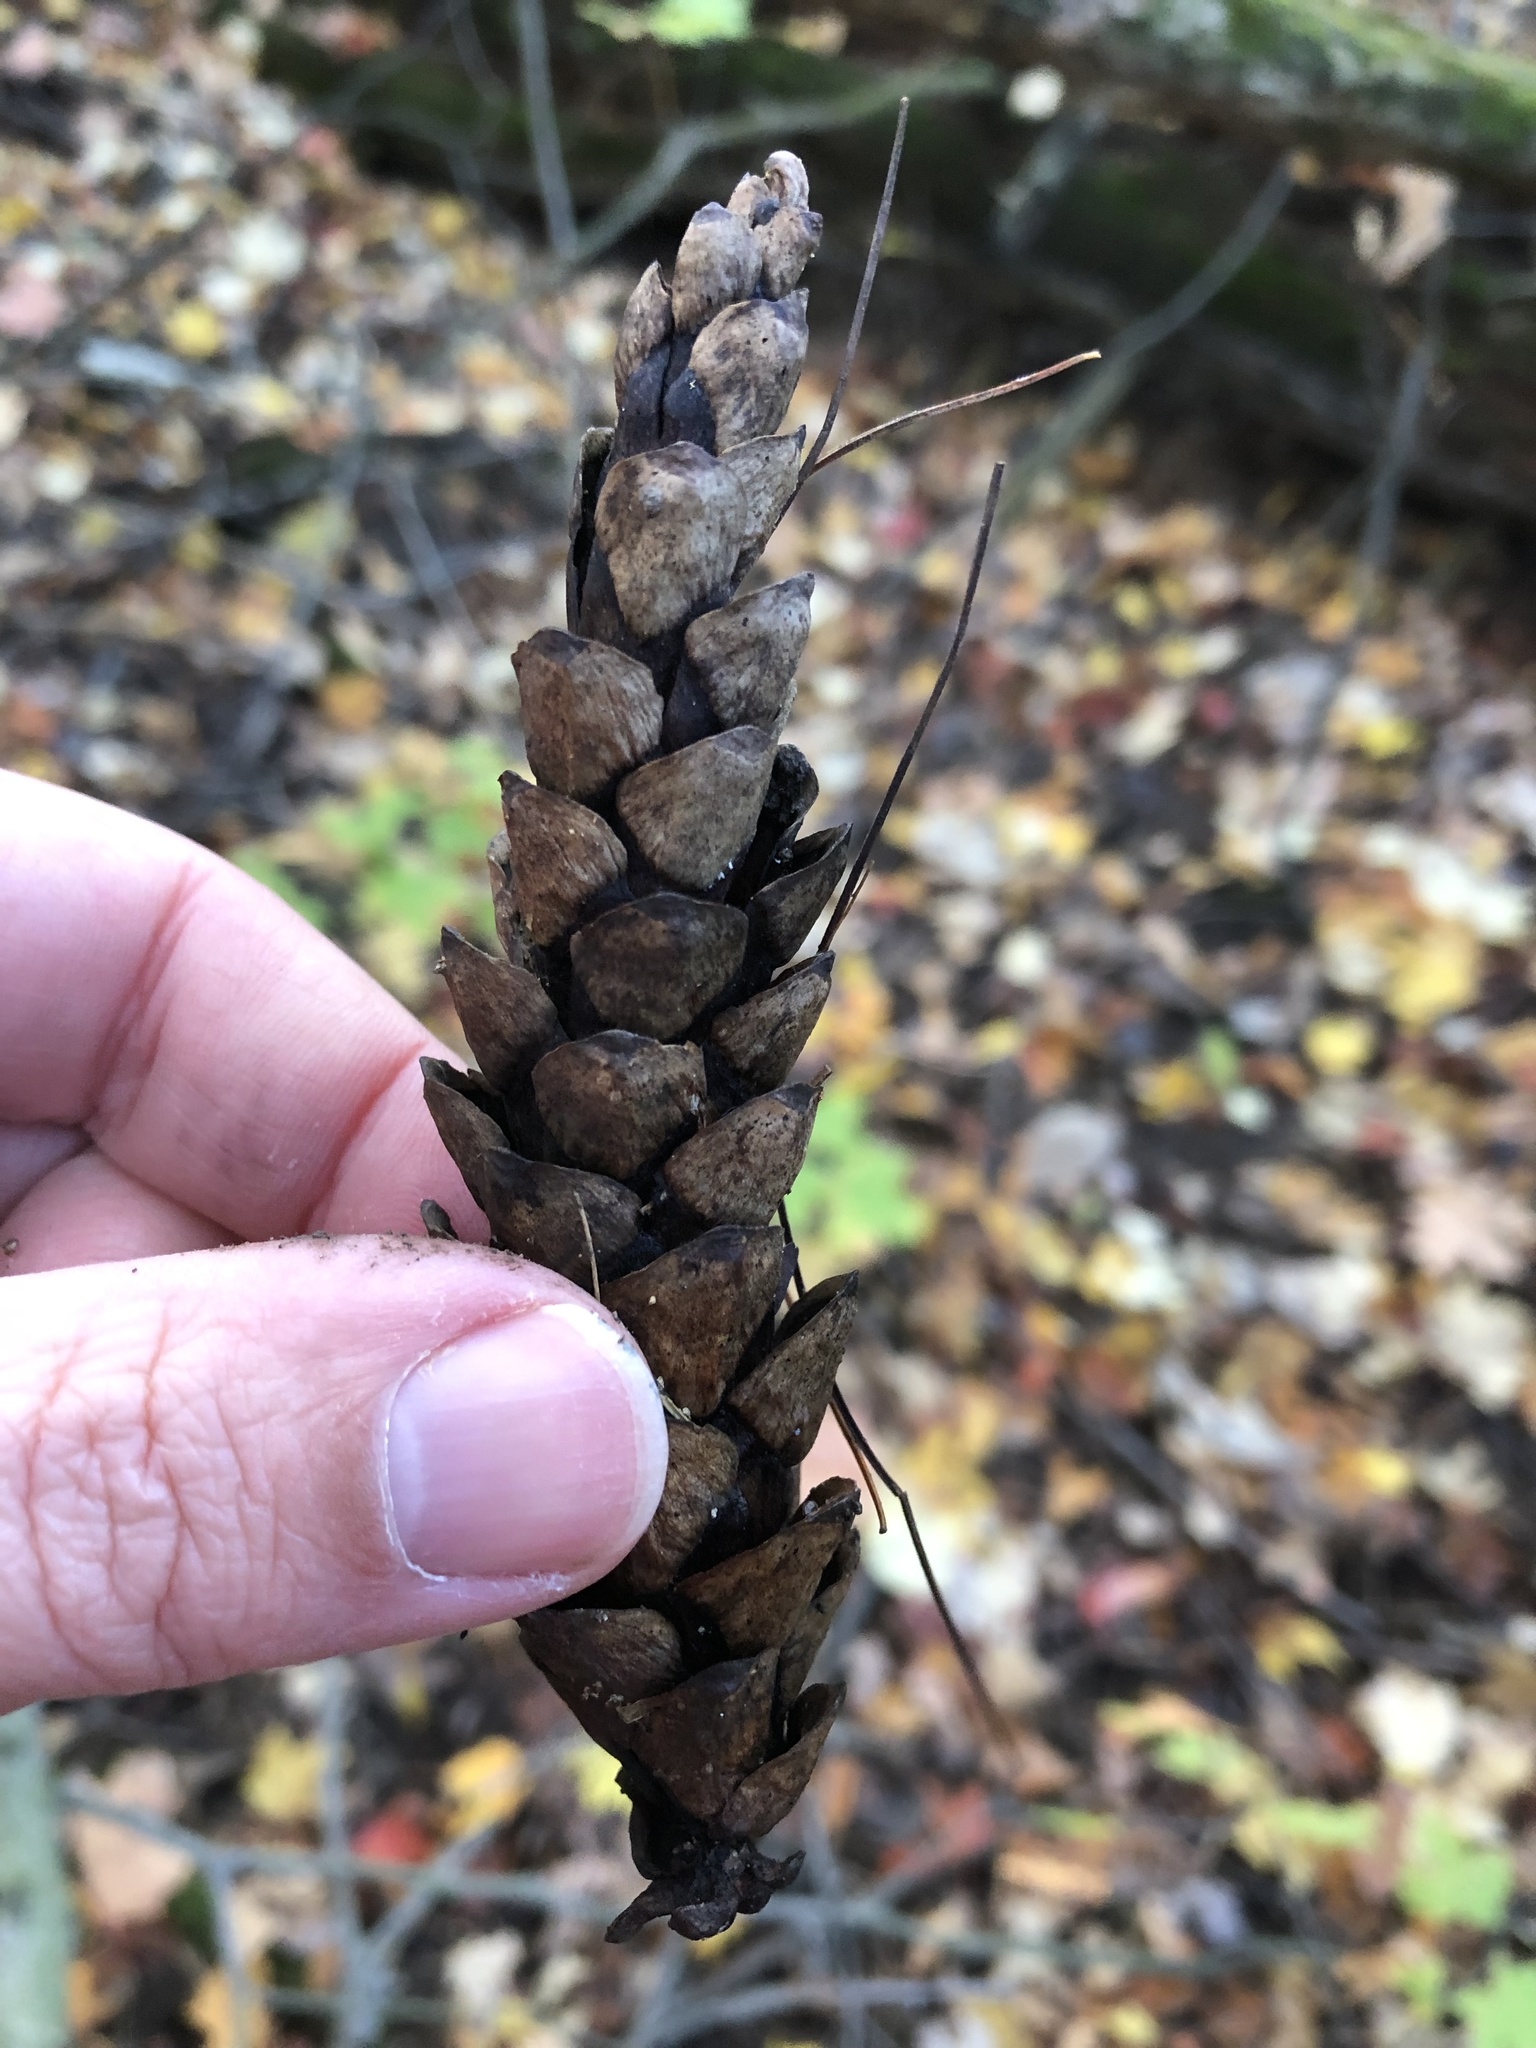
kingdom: Plantae
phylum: Tracheophyta
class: Pinopsida
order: Pinales
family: Pinaceae
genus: Pinus
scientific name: Pinus strobus
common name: Weymouth pine
